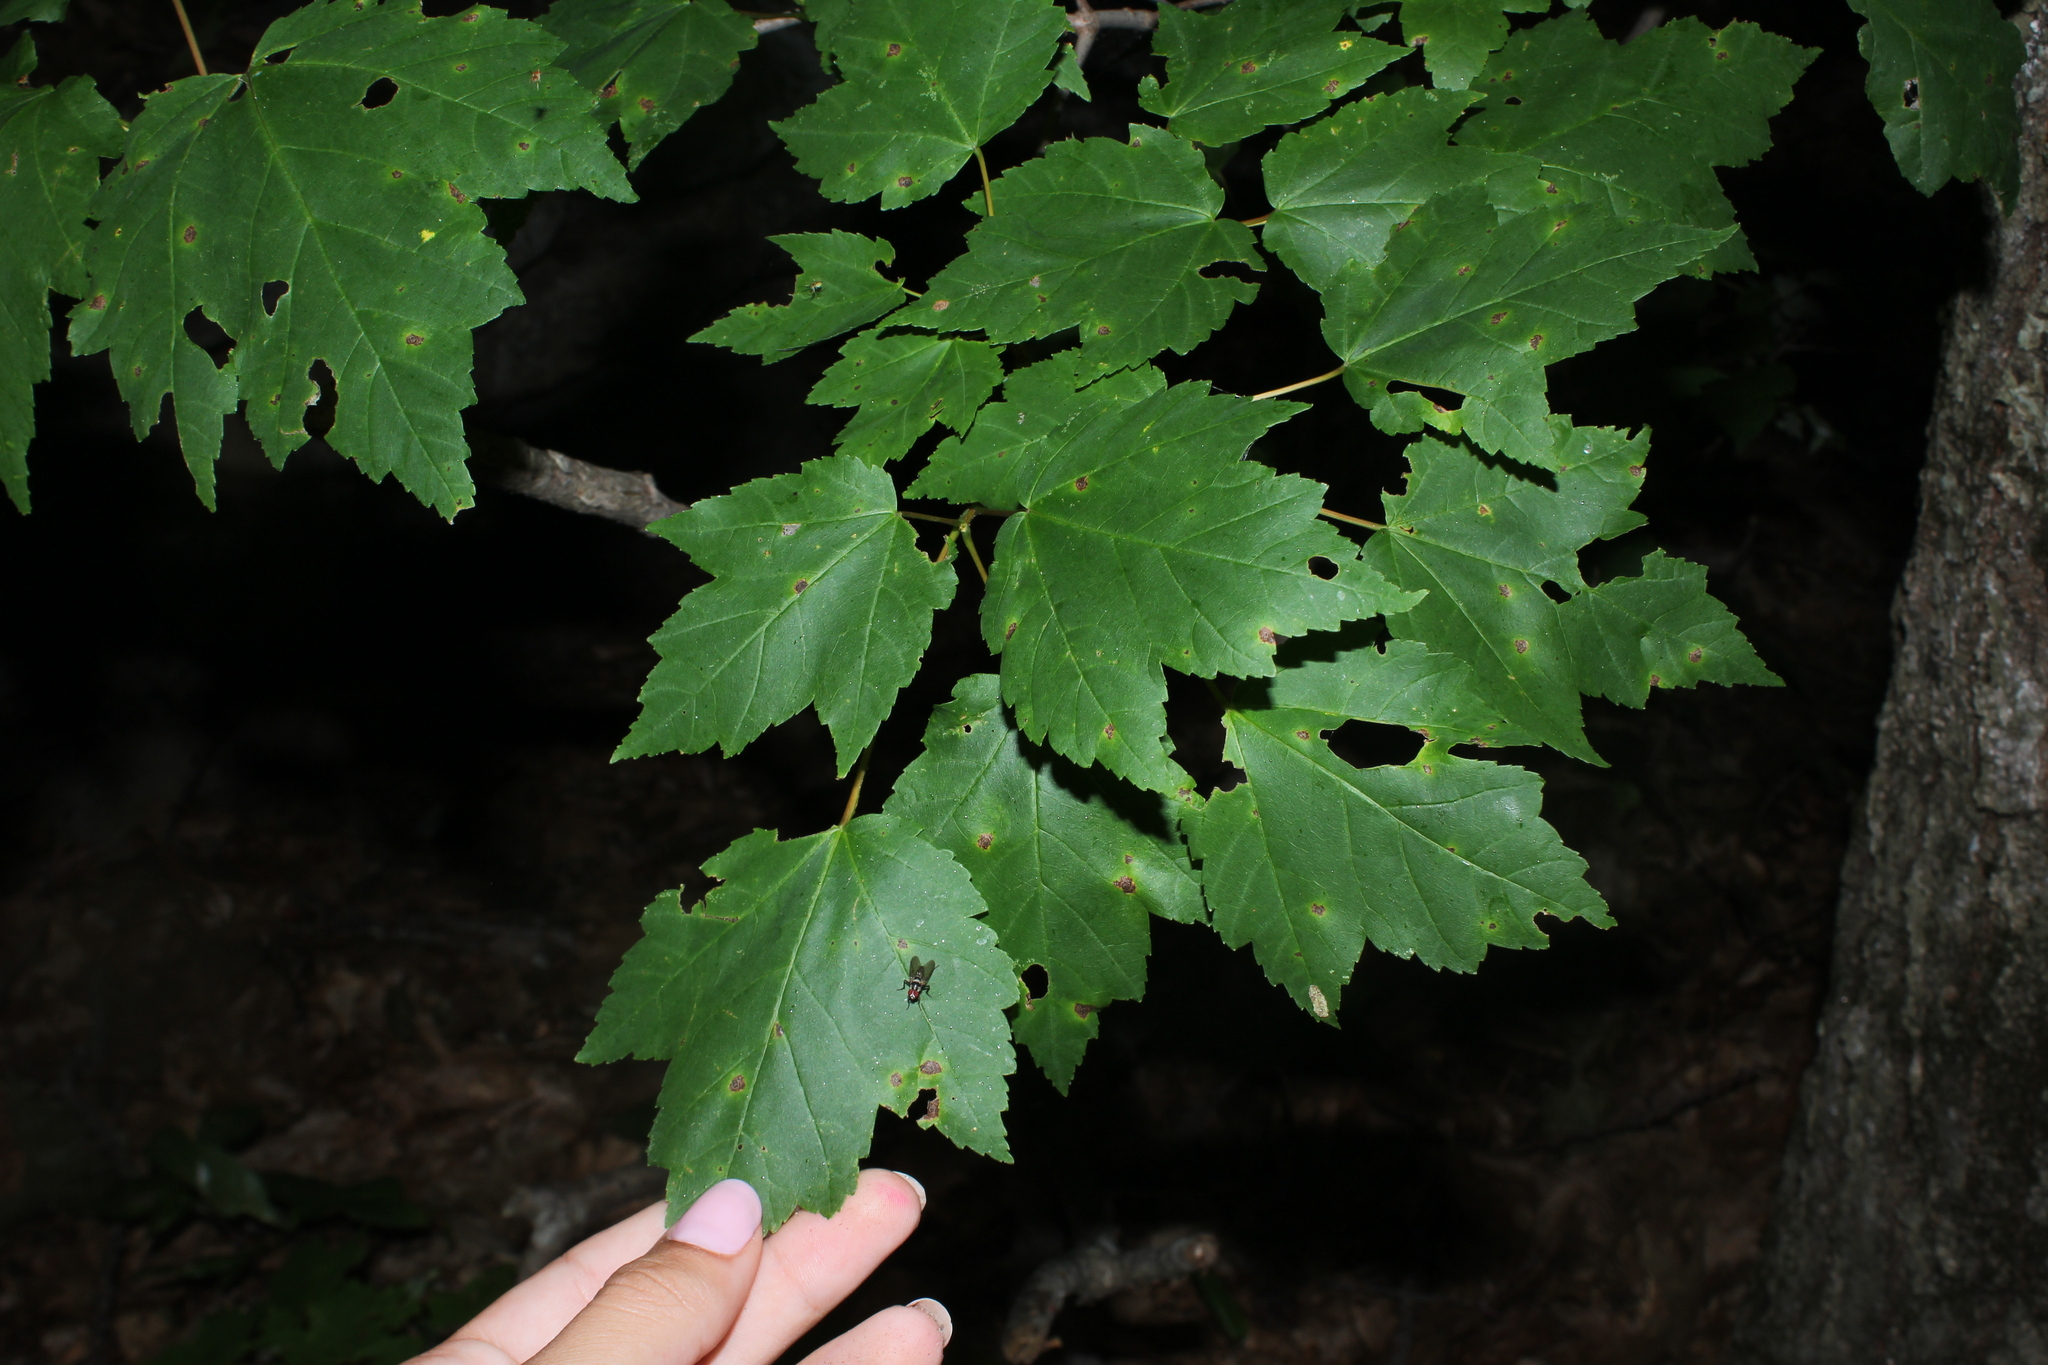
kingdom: Plantae
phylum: Tracheophyta
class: Magnoliopsida
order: Sapindales
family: Sapindaceae
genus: Acer
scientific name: Acer rubrum
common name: Red maple
